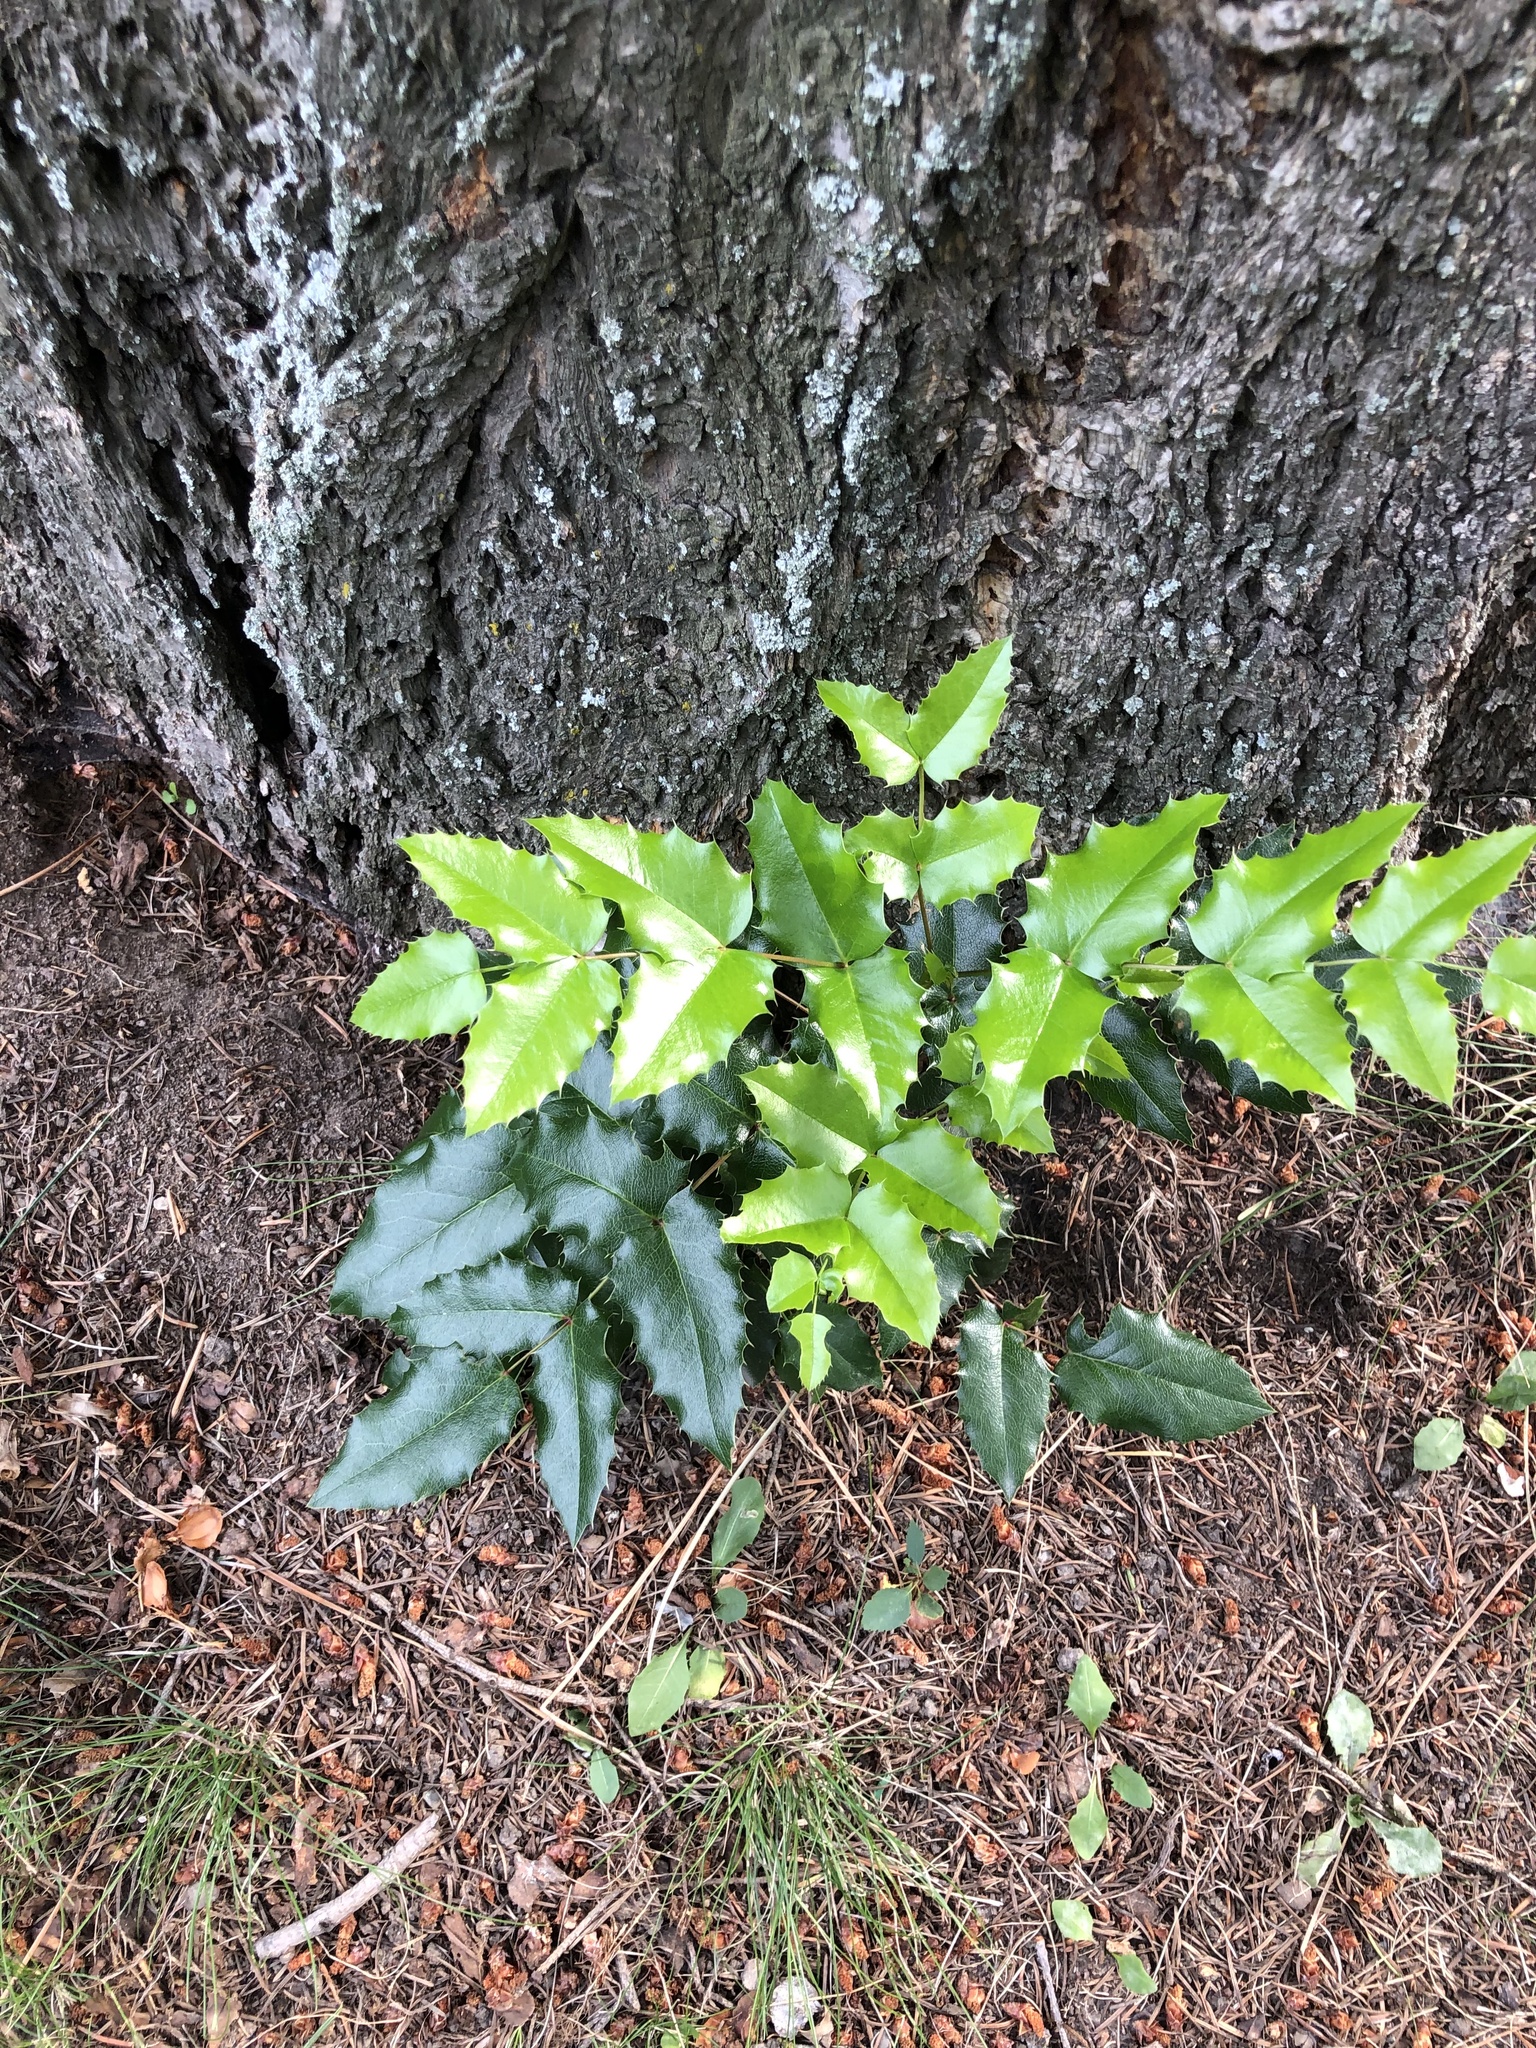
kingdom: Plantae
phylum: Tracheophyta
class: Magnoliopsida
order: Ranunculales
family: Berberidaceae
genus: Mahonia
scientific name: Mahonia aquifolium
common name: Oregon-grape
